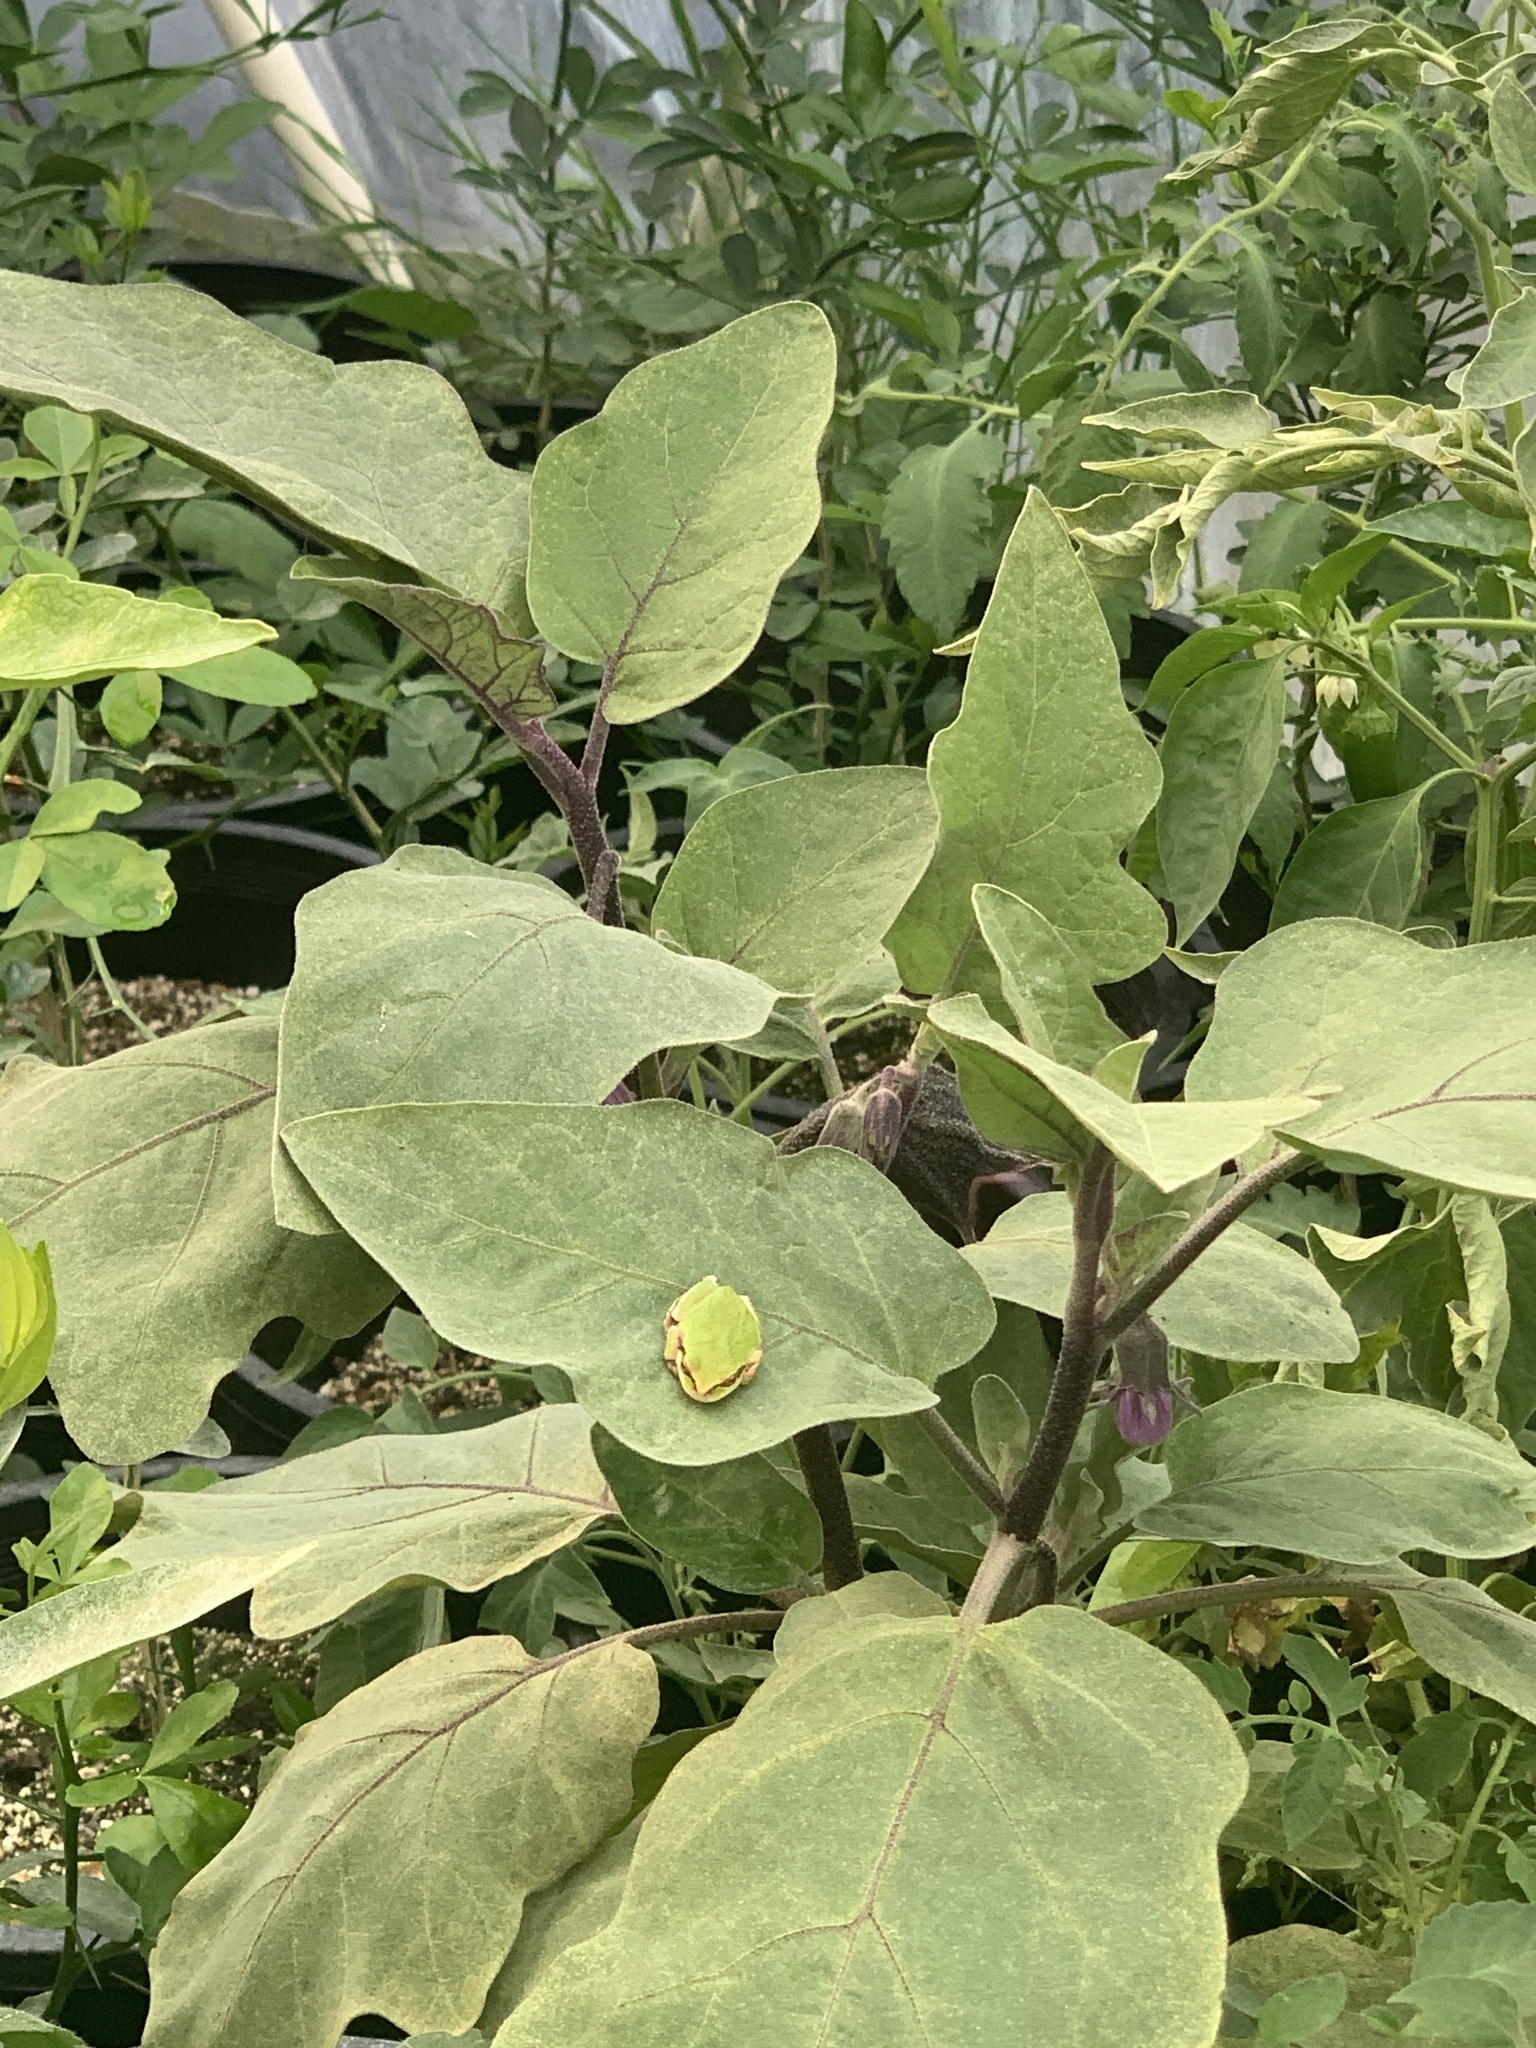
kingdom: Animalia
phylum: Chordata
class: Amphibia
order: Anura
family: Hylidae
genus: Pseudacris
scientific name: Pseudacris regilla
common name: Pacific chorus frog
